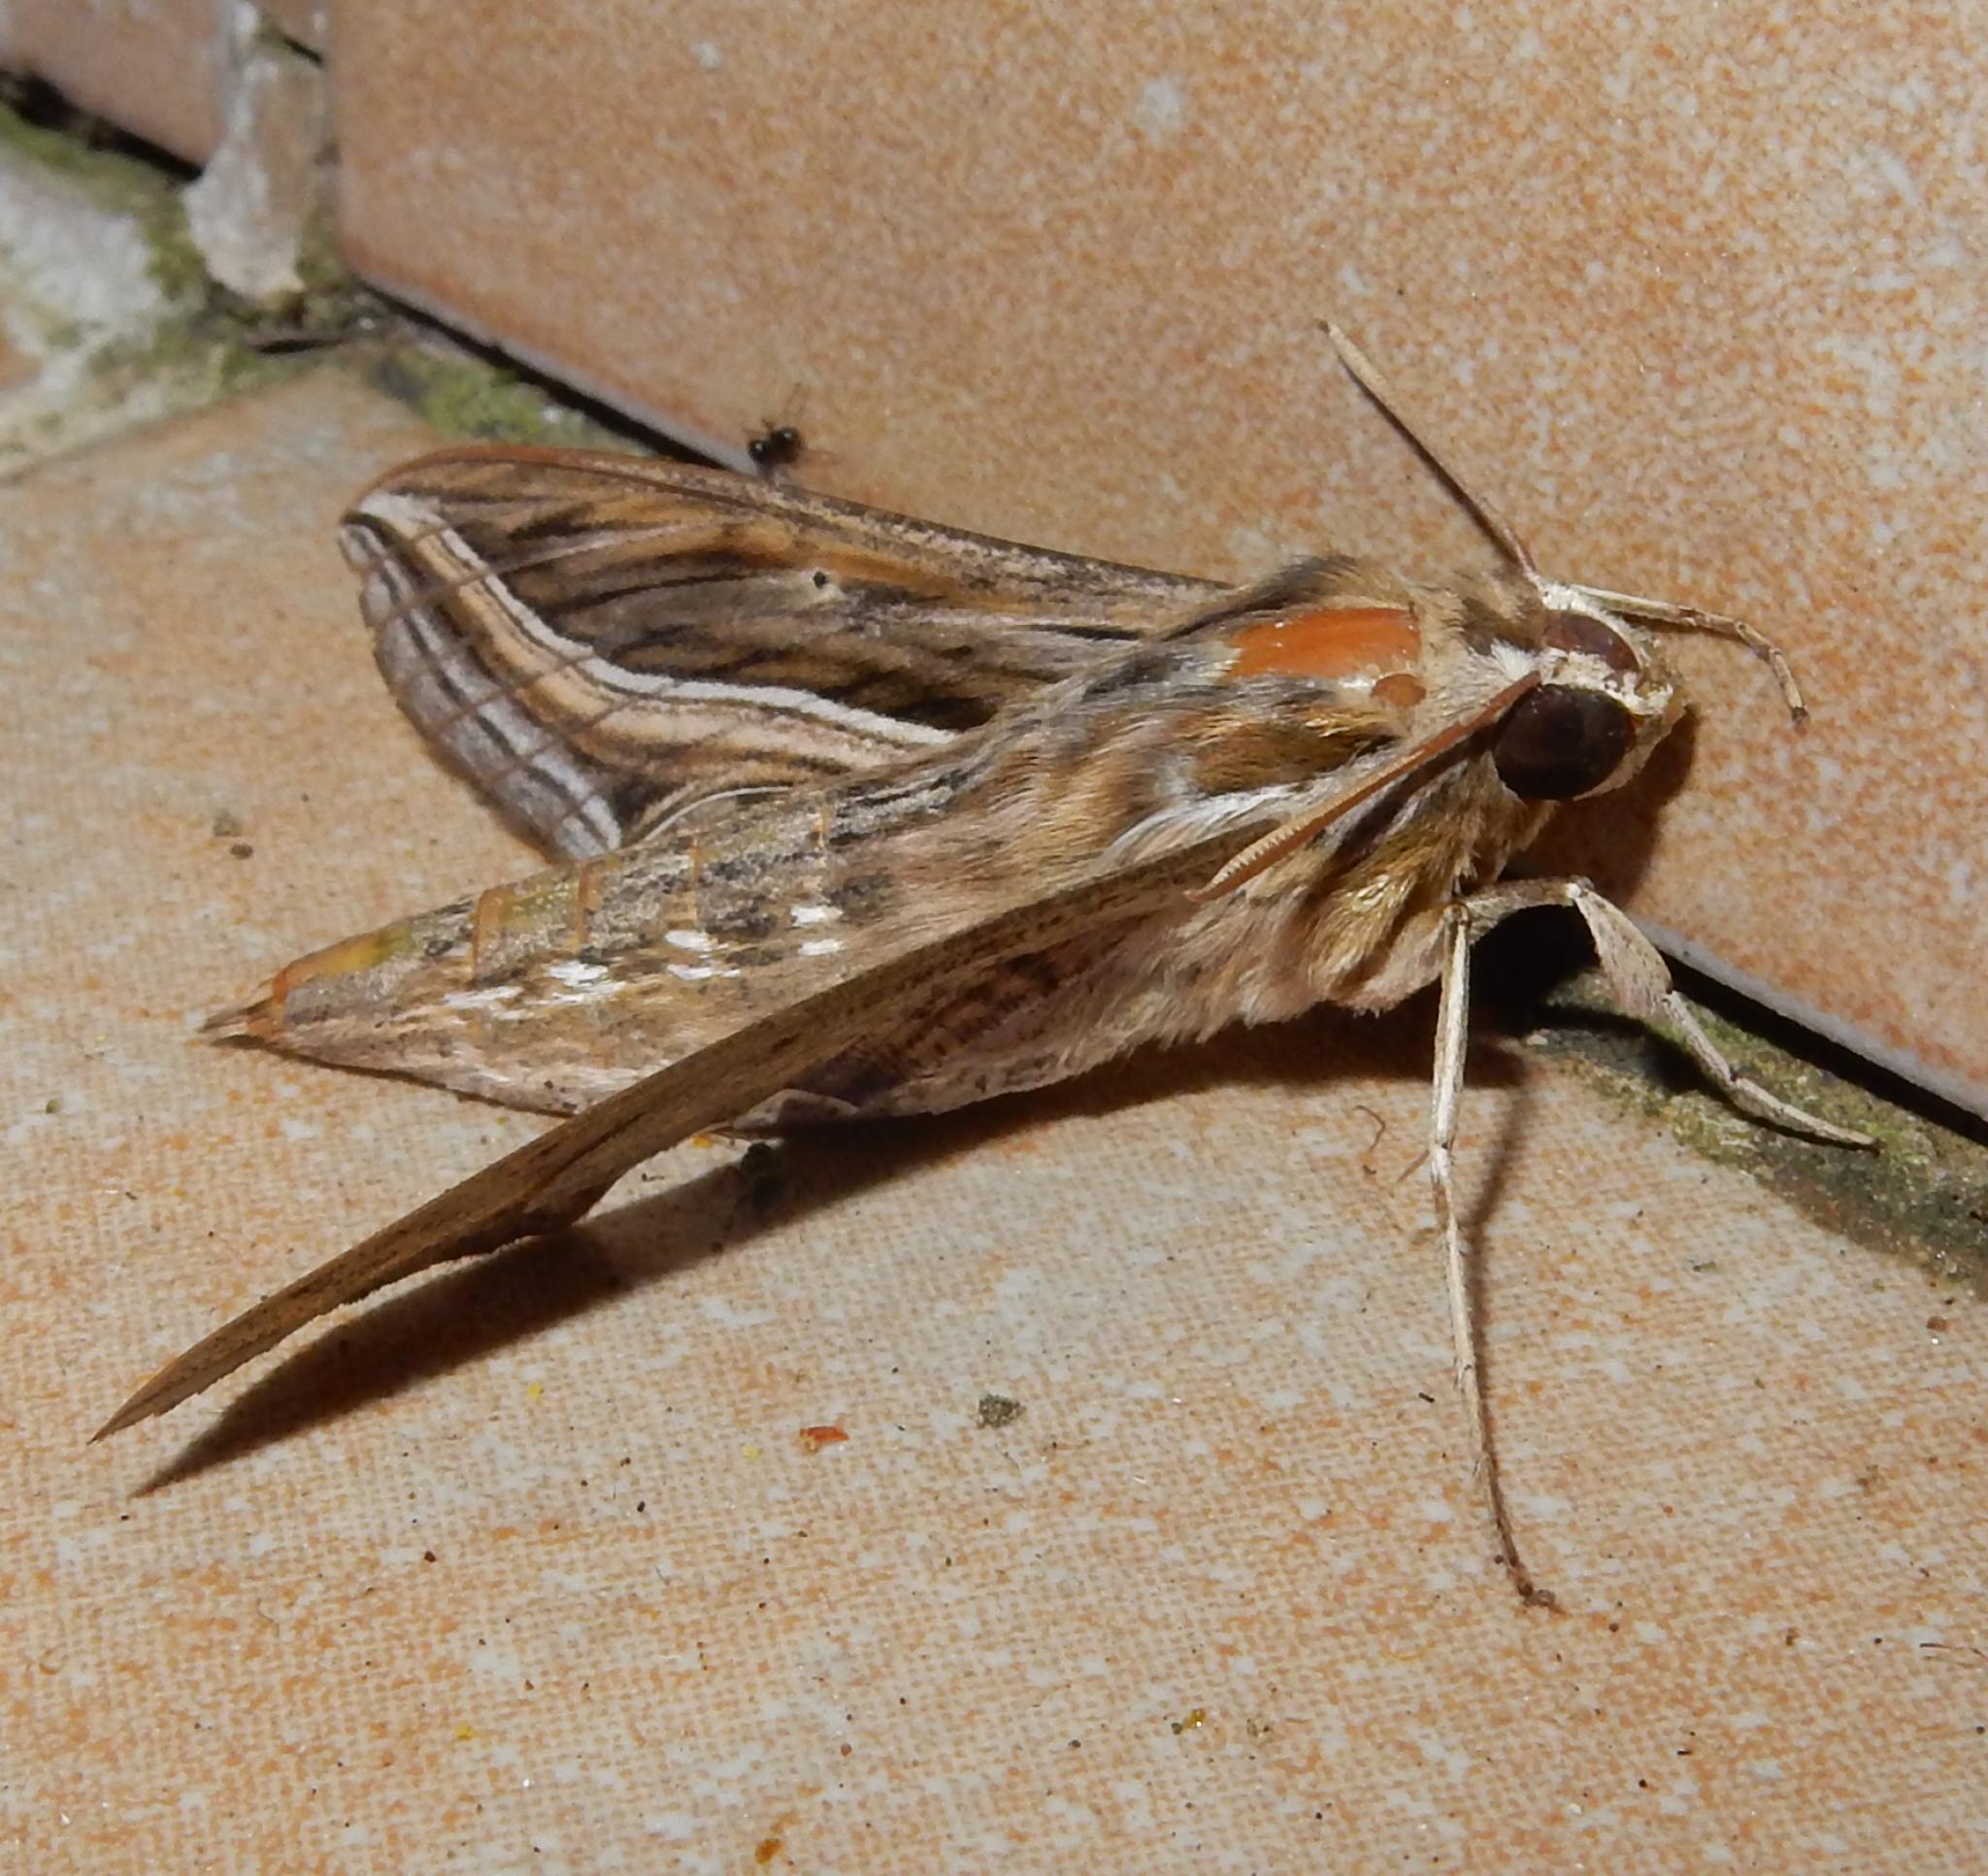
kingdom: Animalia
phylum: Arthropoda
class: Insecta
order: Lepidoptera
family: Sphingidae
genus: Hippotion
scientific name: Hippotion celerio
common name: Silver-striped hawk-moth
